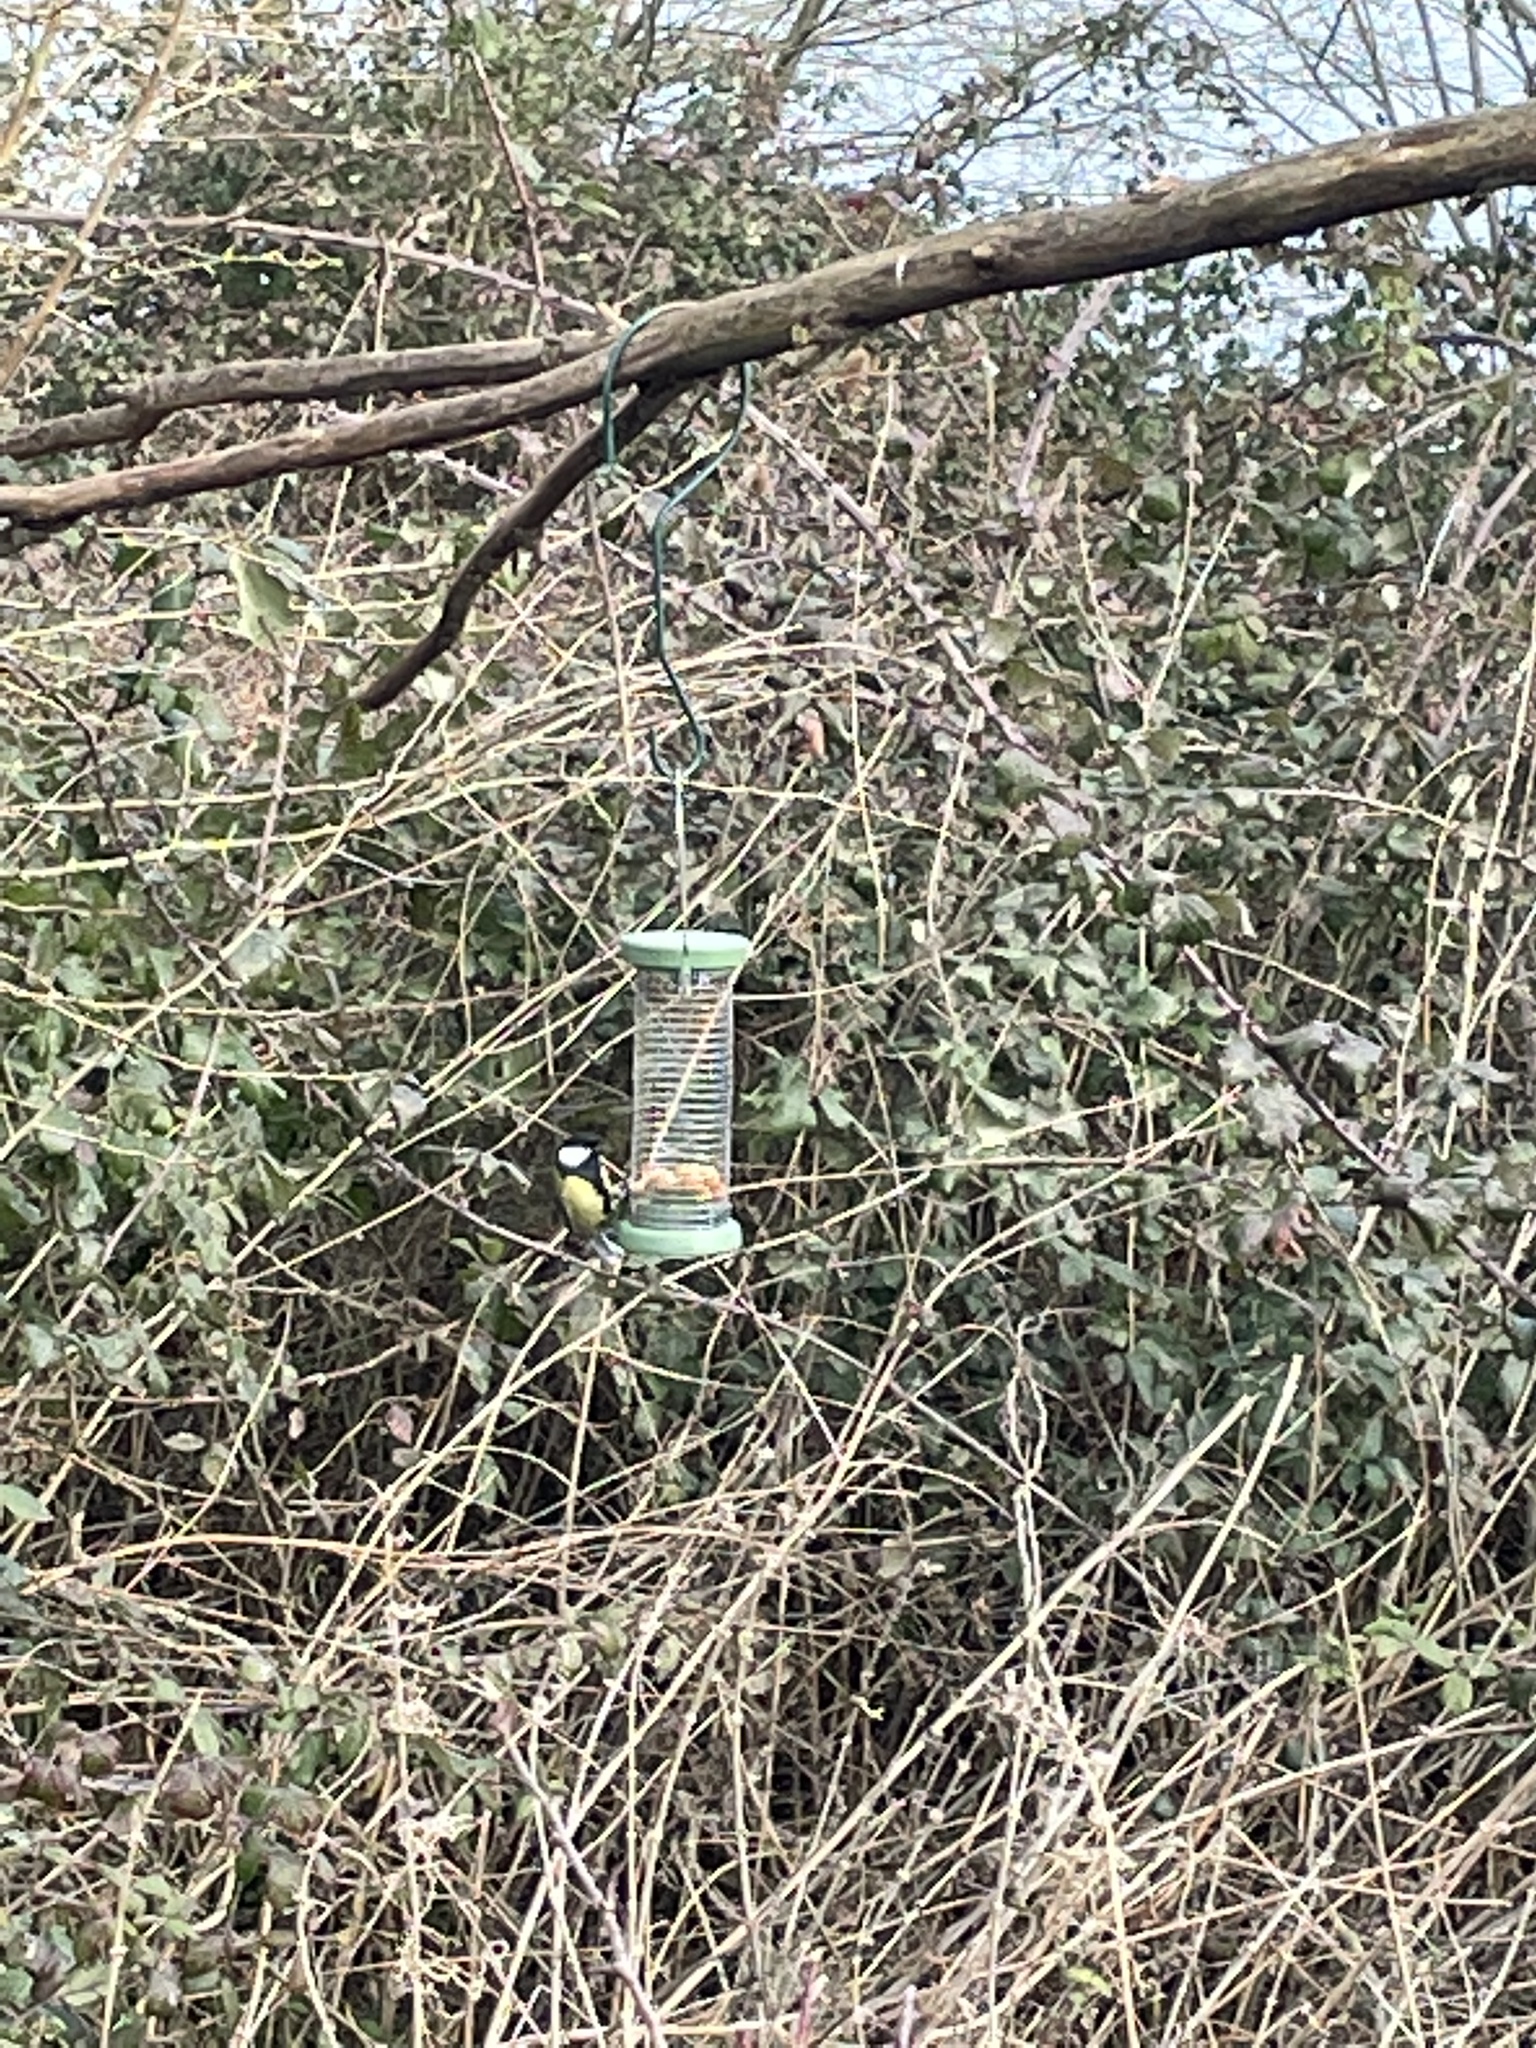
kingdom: Animalia
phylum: Chordata
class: Aves
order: Passeriformes
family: Paridae
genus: Parus
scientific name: Parus major
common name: Great tit
